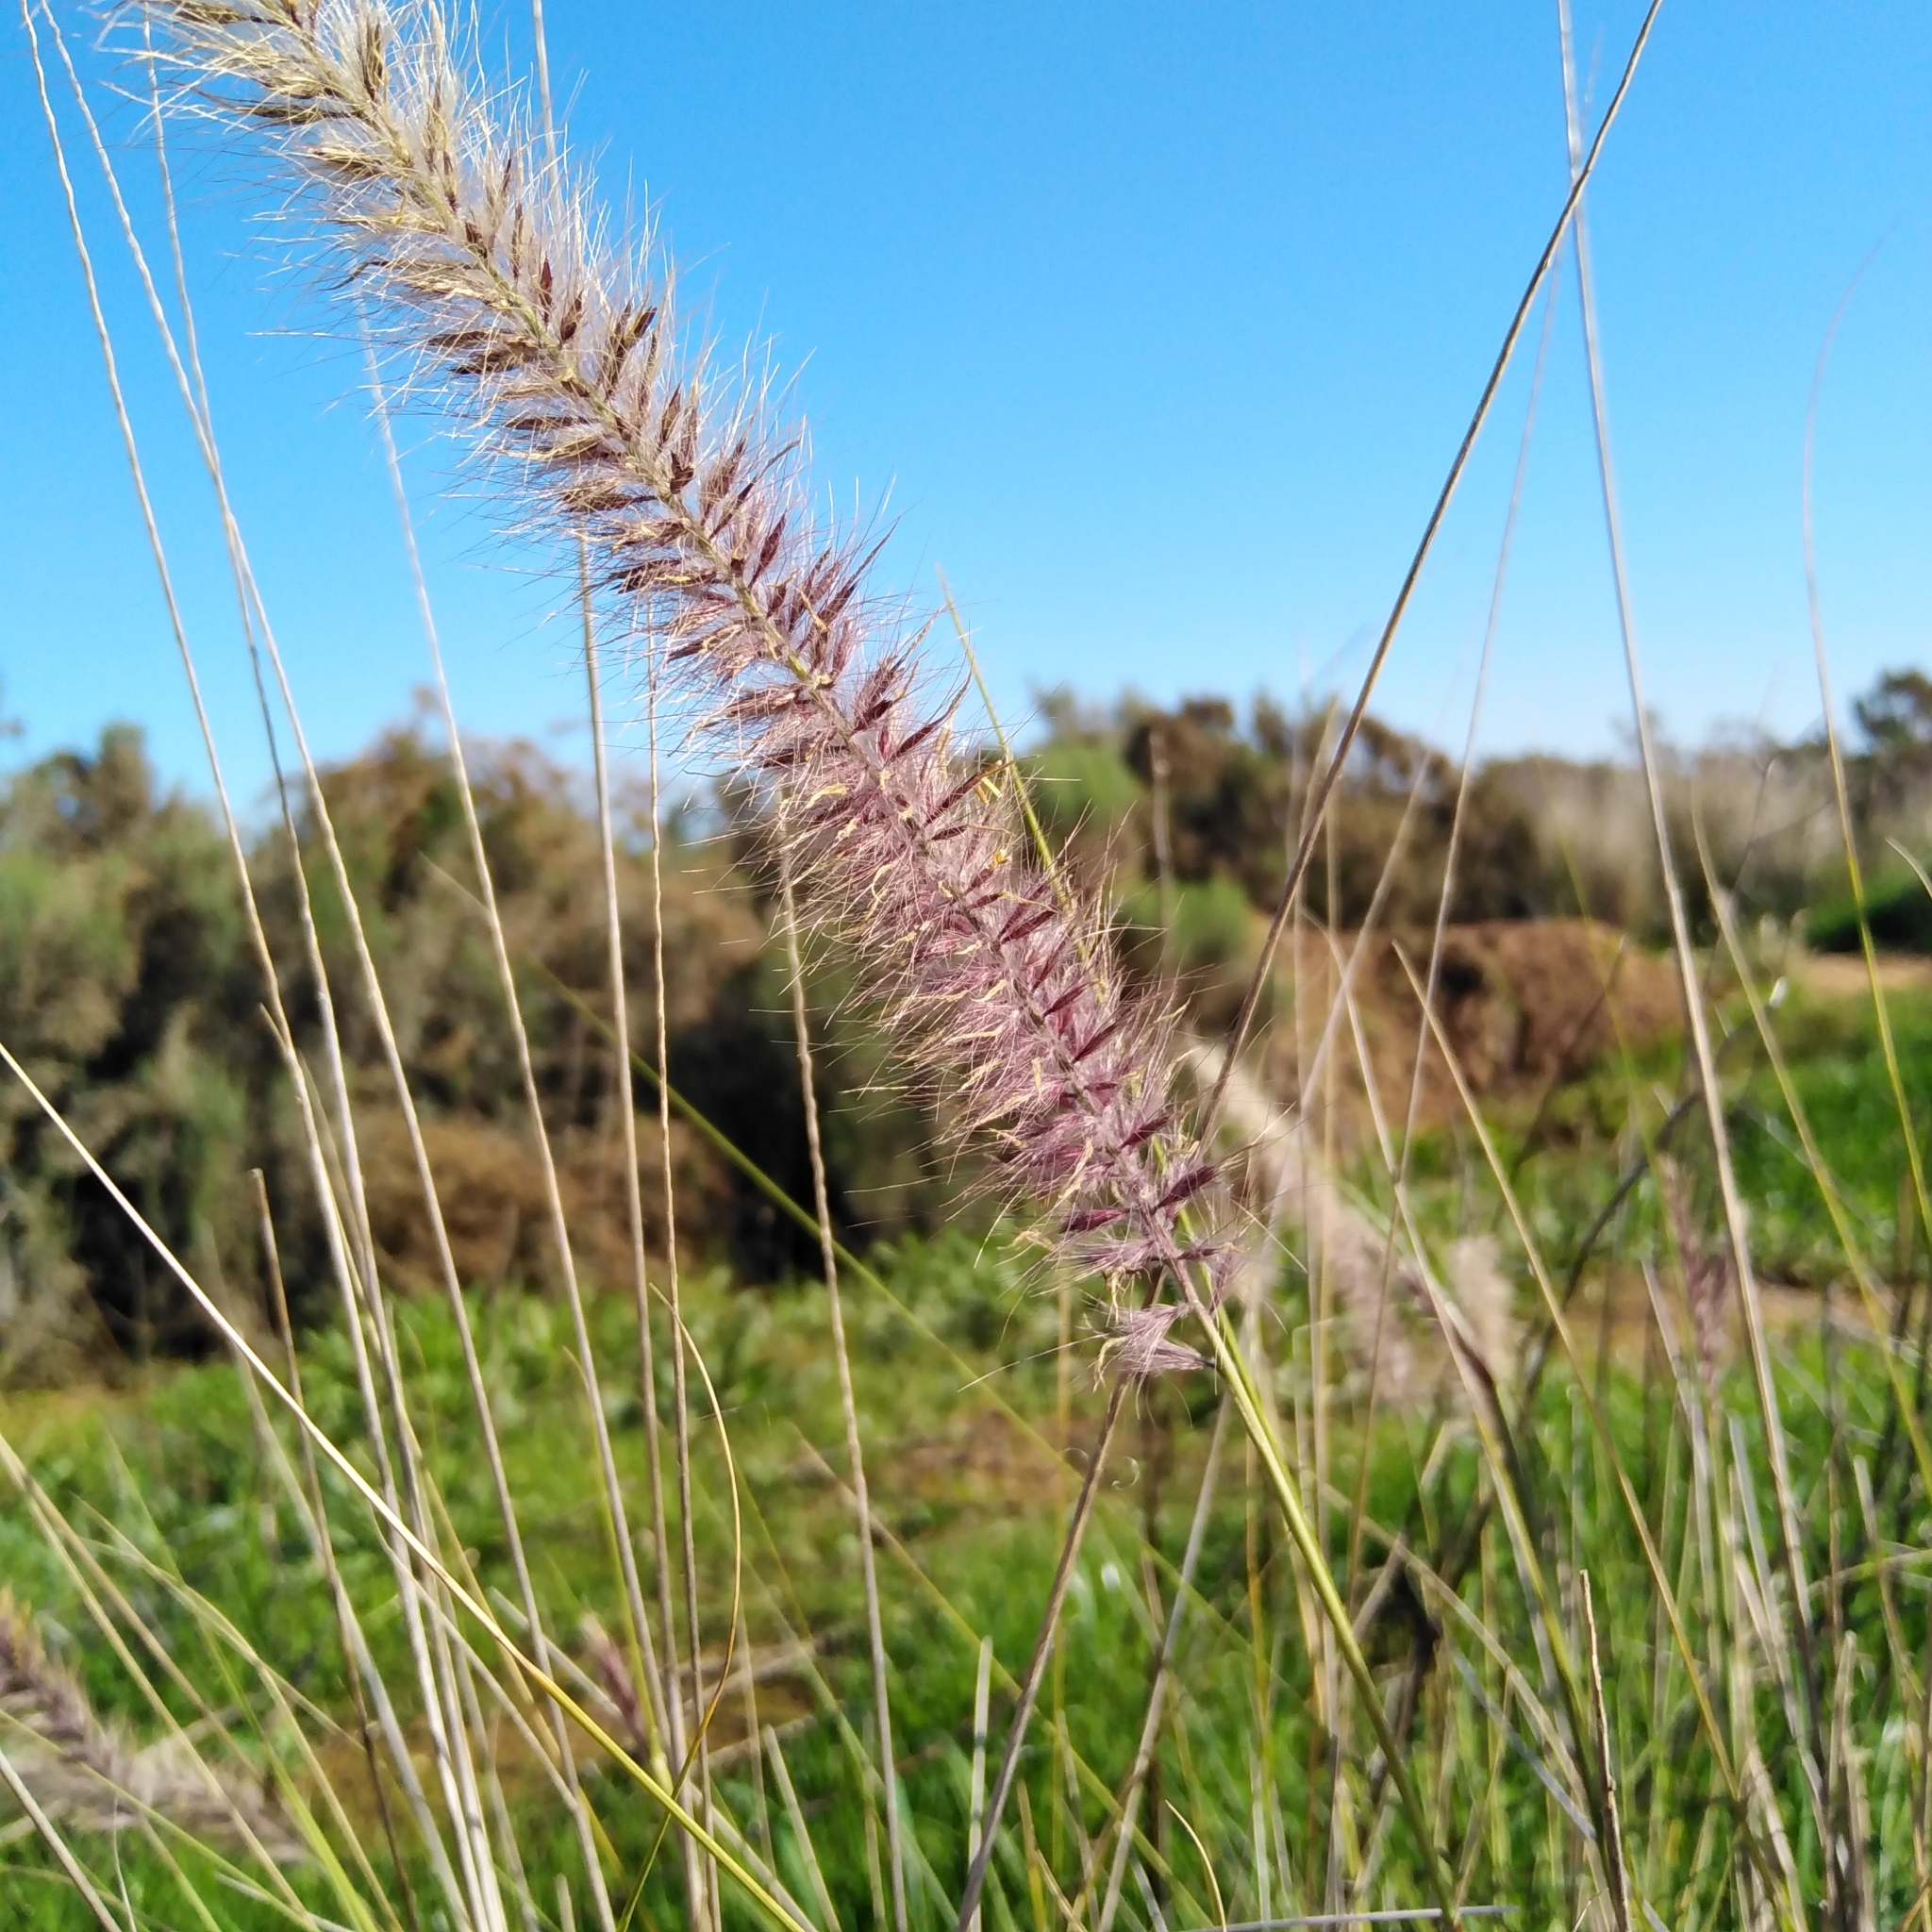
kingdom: Plantae
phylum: Tracheophyta
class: Liliopsida
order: Poales
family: Poaceae
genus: Cenchrus
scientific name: Cenchrus setaceus
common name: Crimson fountaingrass
